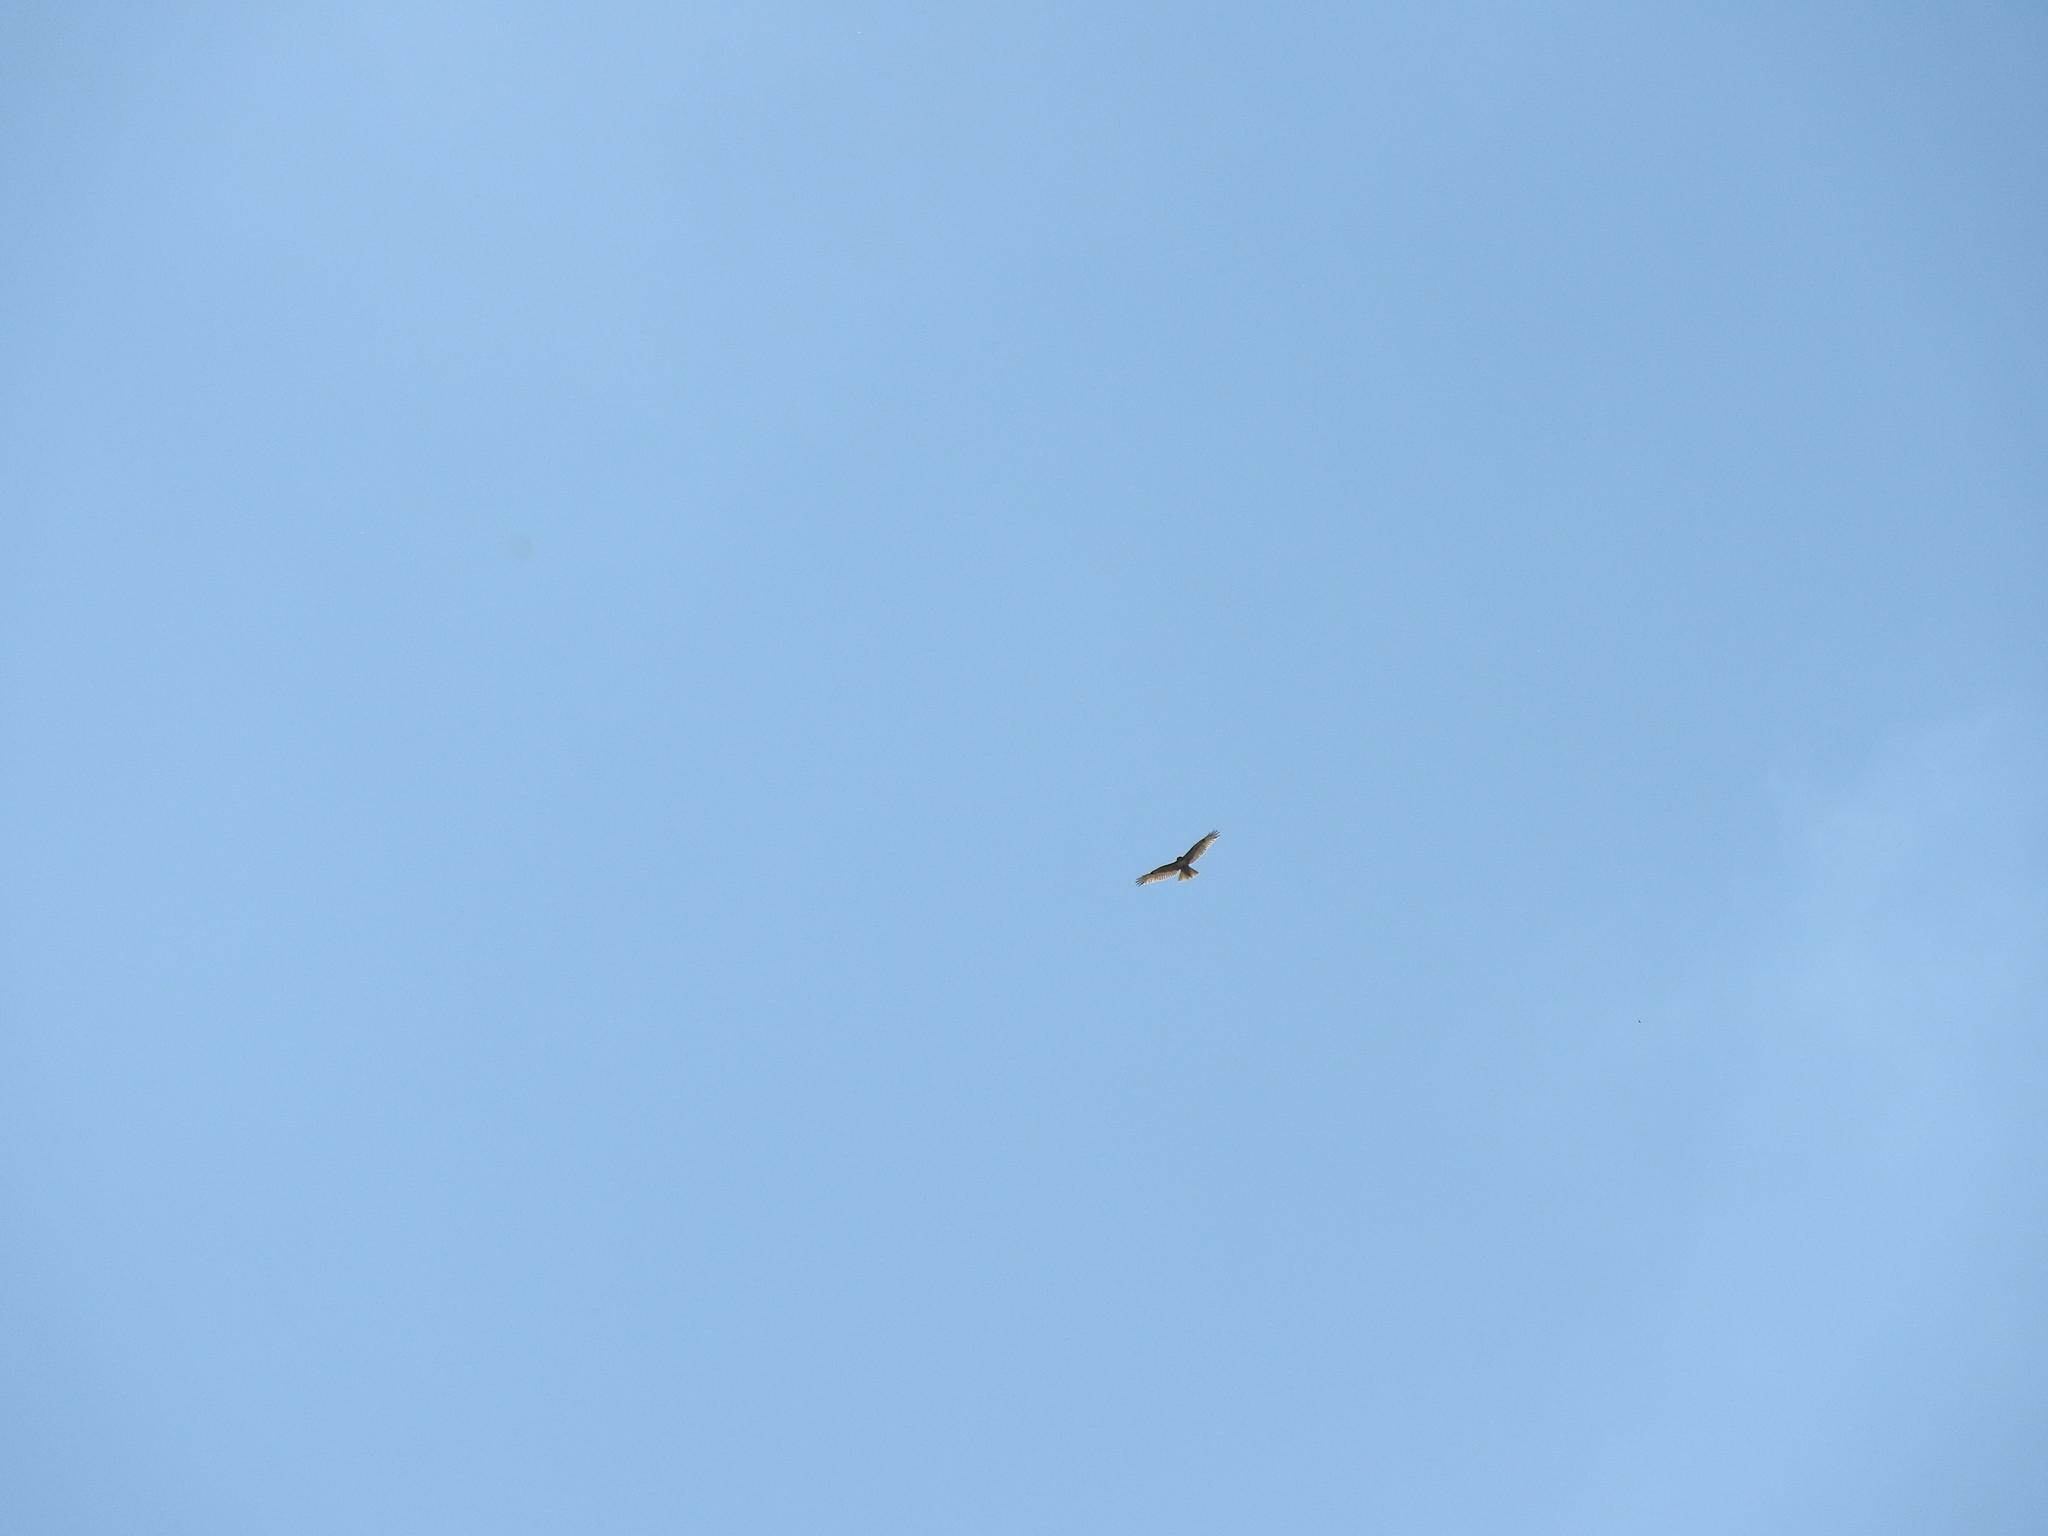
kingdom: Animalia
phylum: Chordata
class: Aves
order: Accipitriformes
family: Accipitridae
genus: Buteo
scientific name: Buteo jamaicensis
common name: Red-tailed hawk
